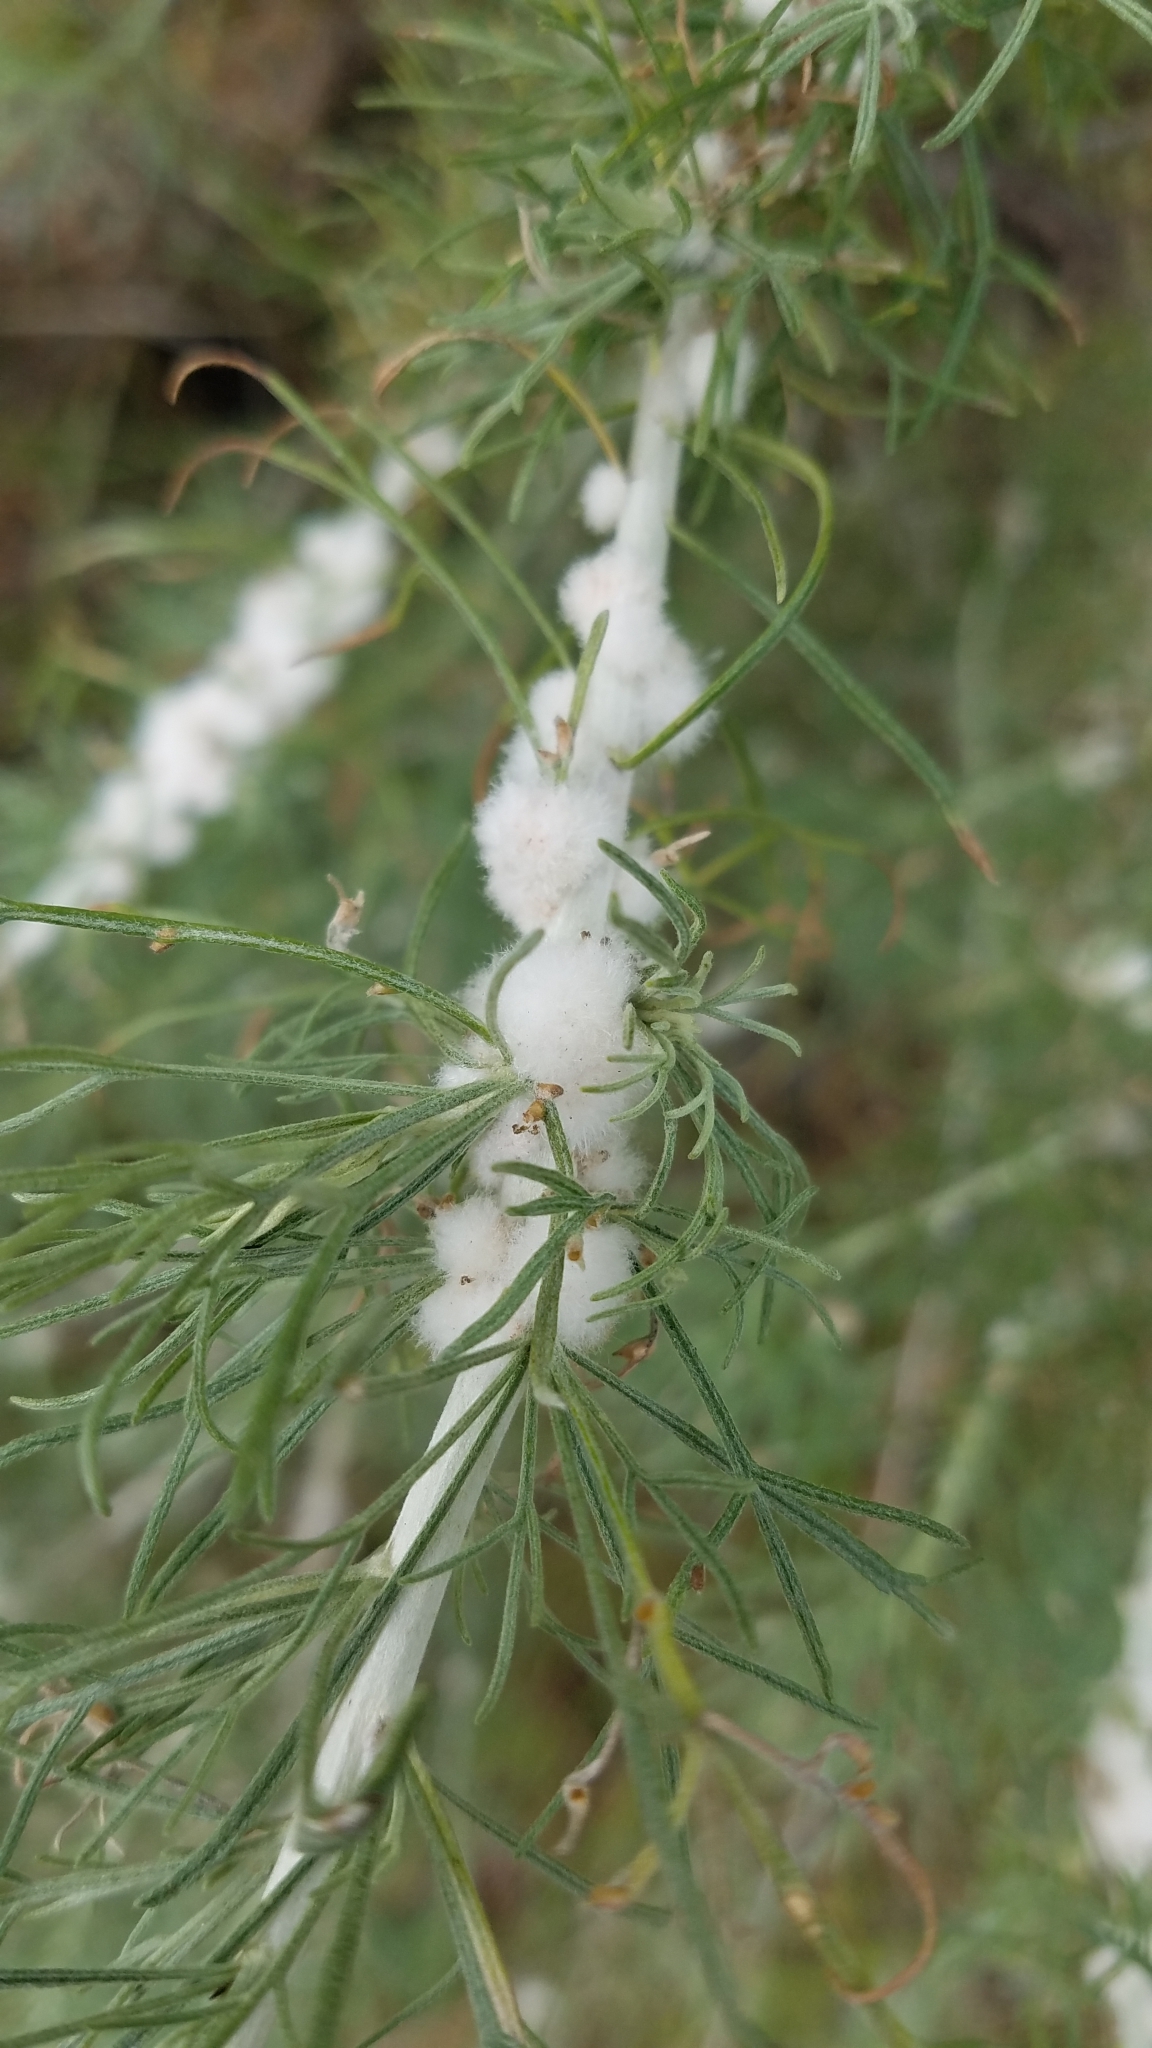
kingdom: Animalia
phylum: Arthropoda
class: Insecta
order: Diptera
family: Cecidomyiidae
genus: Rhopalomyia
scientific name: Rhopalomyia floccosa
